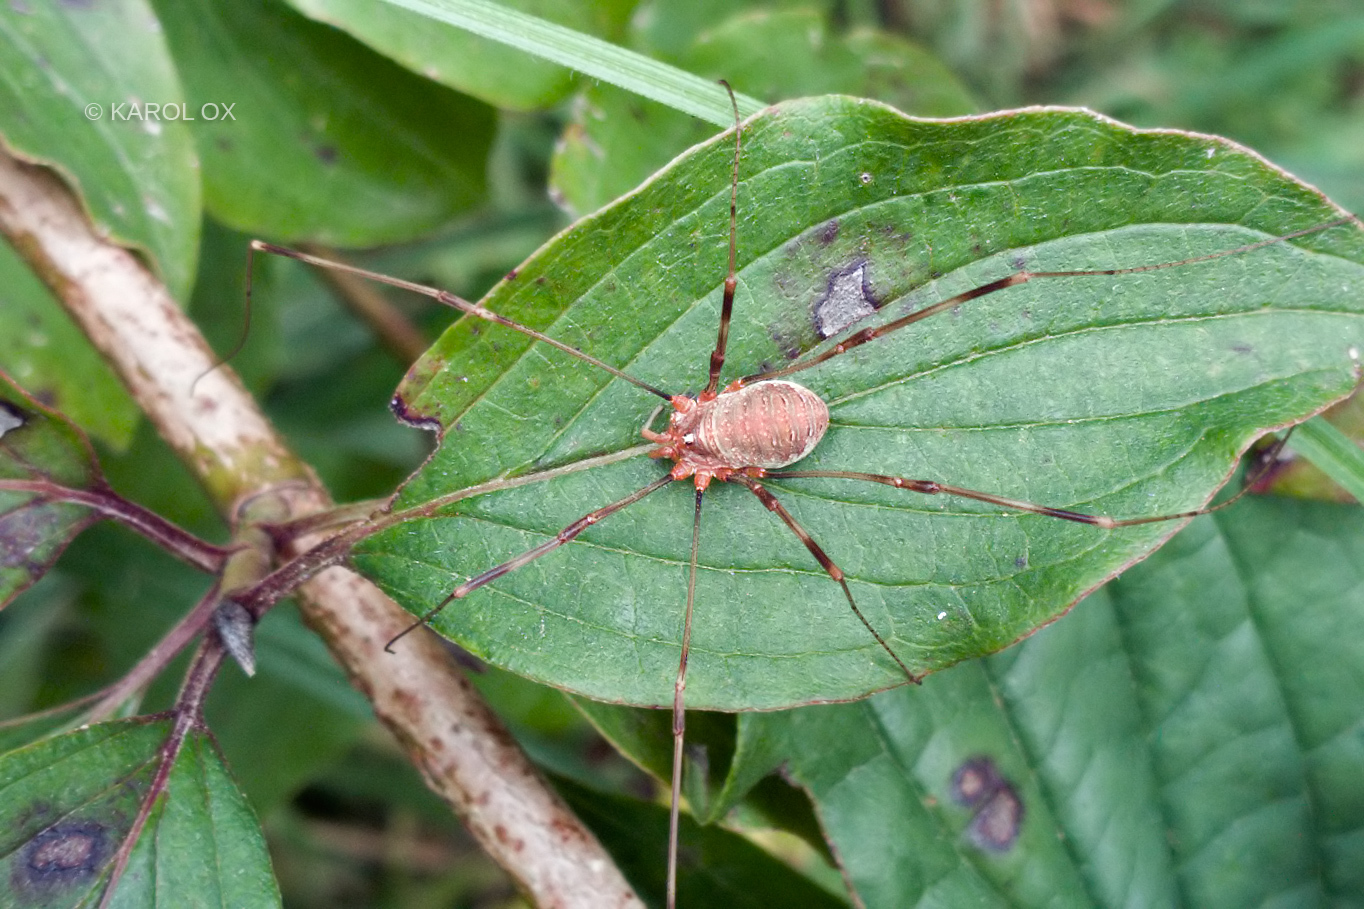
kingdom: Animalia
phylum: Arthropoda
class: Arachnida
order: Opiliones
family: Phalangiidae
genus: Opilio
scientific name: Opilio canestrinii
